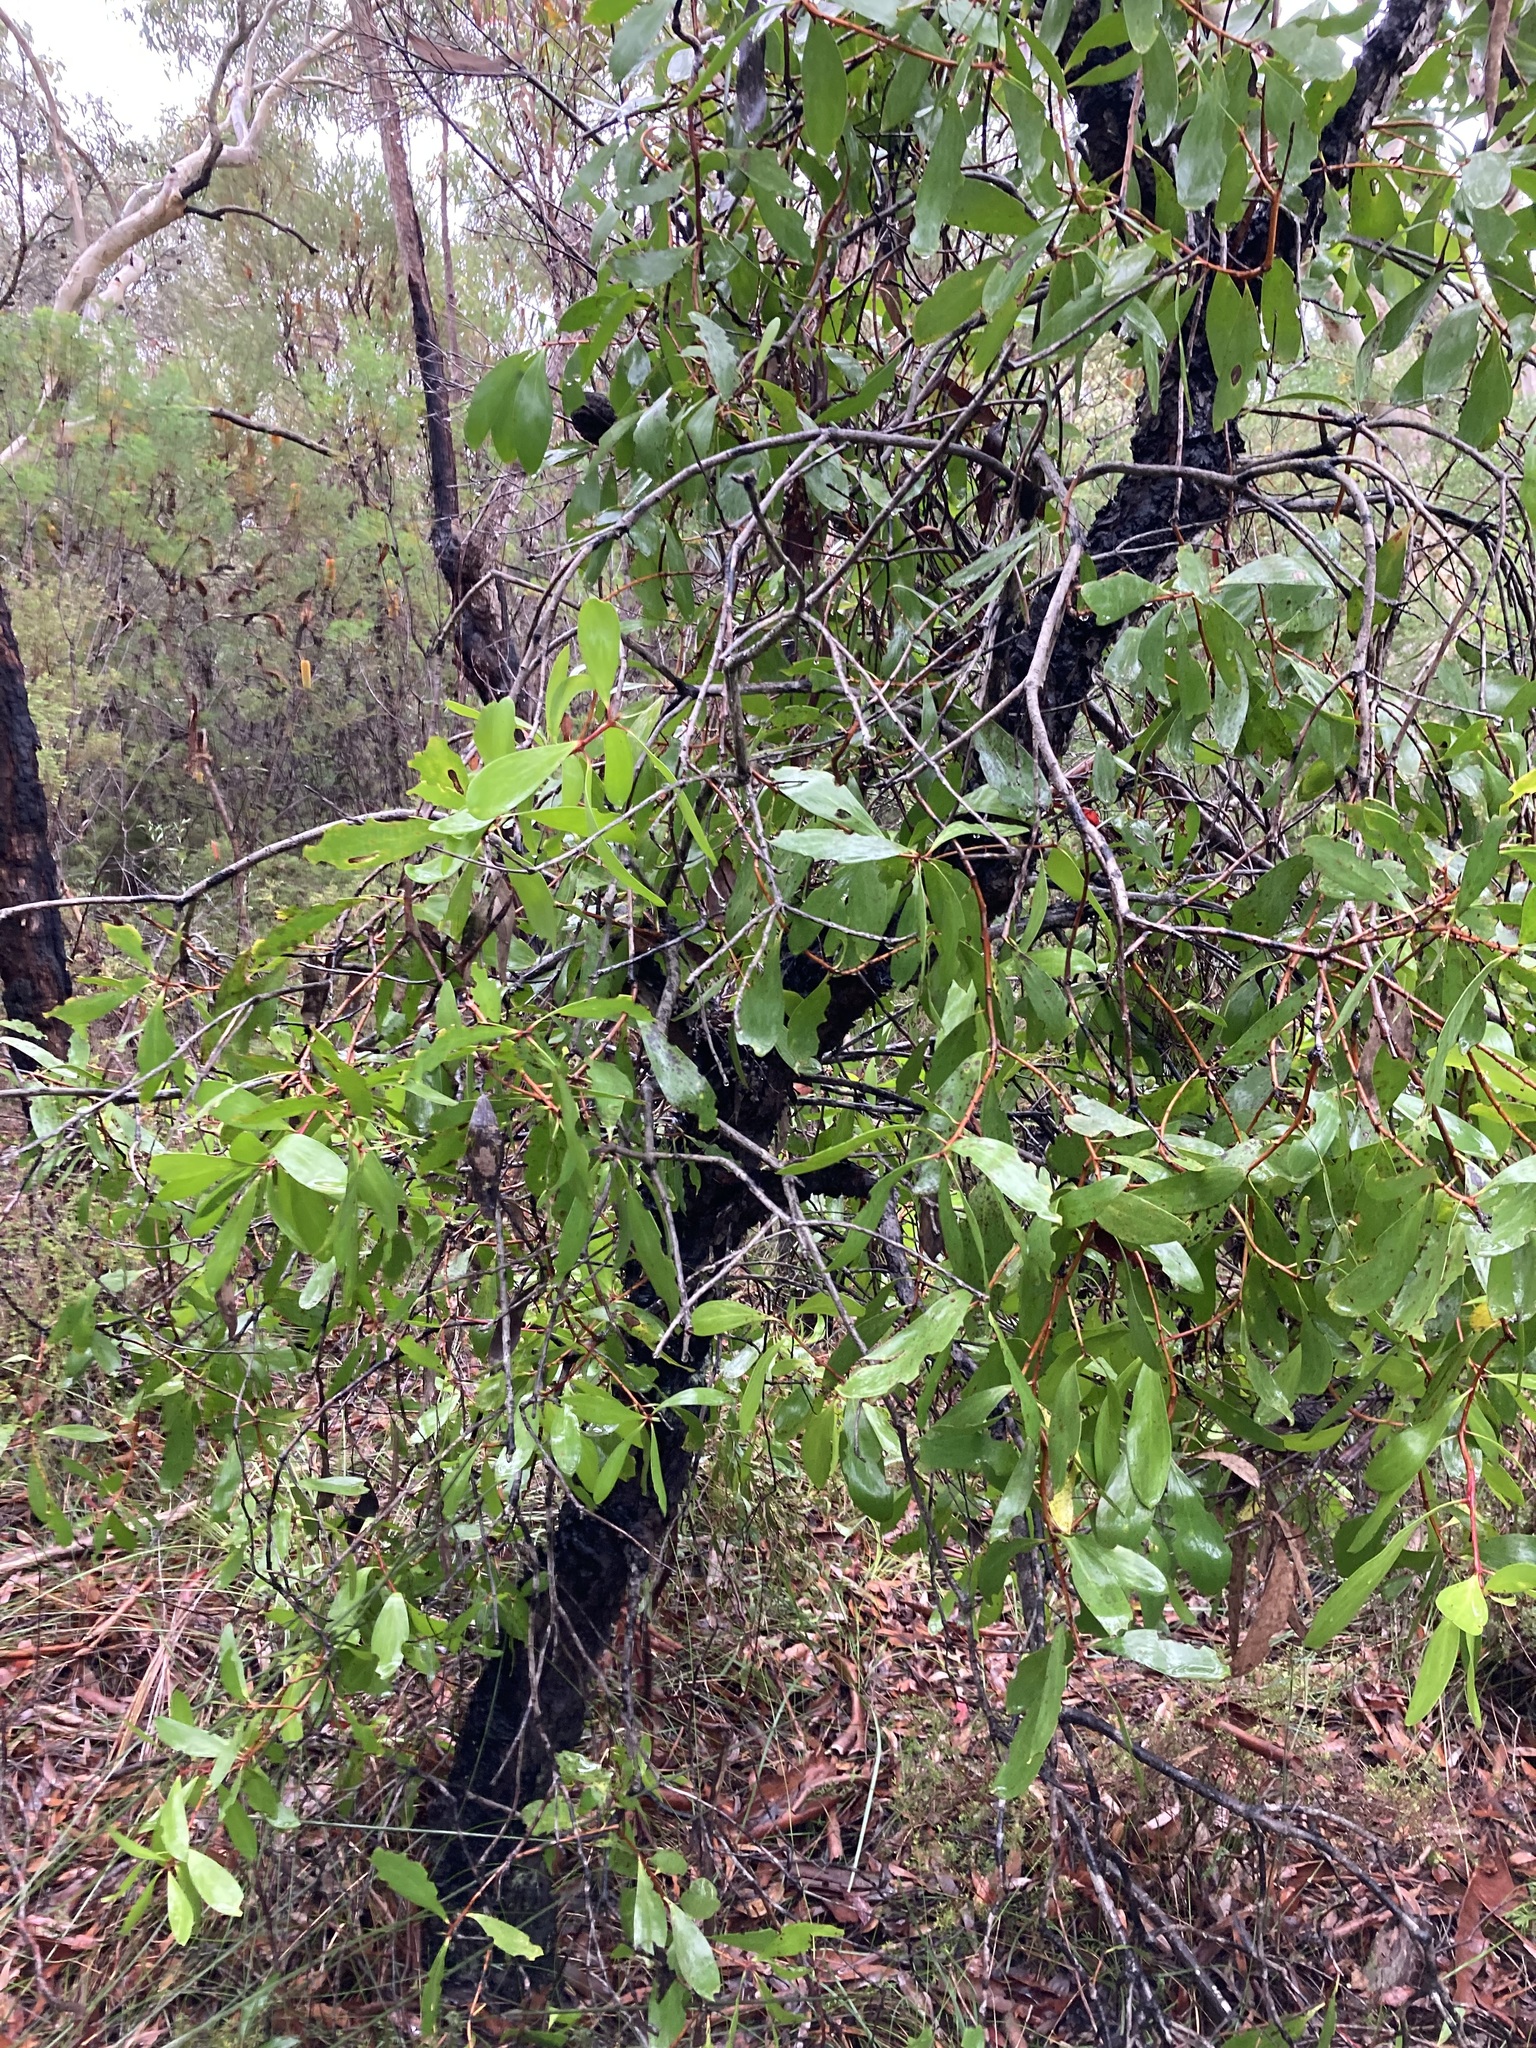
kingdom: Plantae
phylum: Tracheophyta
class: Magnoliopsida
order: Proteales
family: Proteaceae
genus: Persoonia
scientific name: Persoonia levis
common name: Smooth geebung
